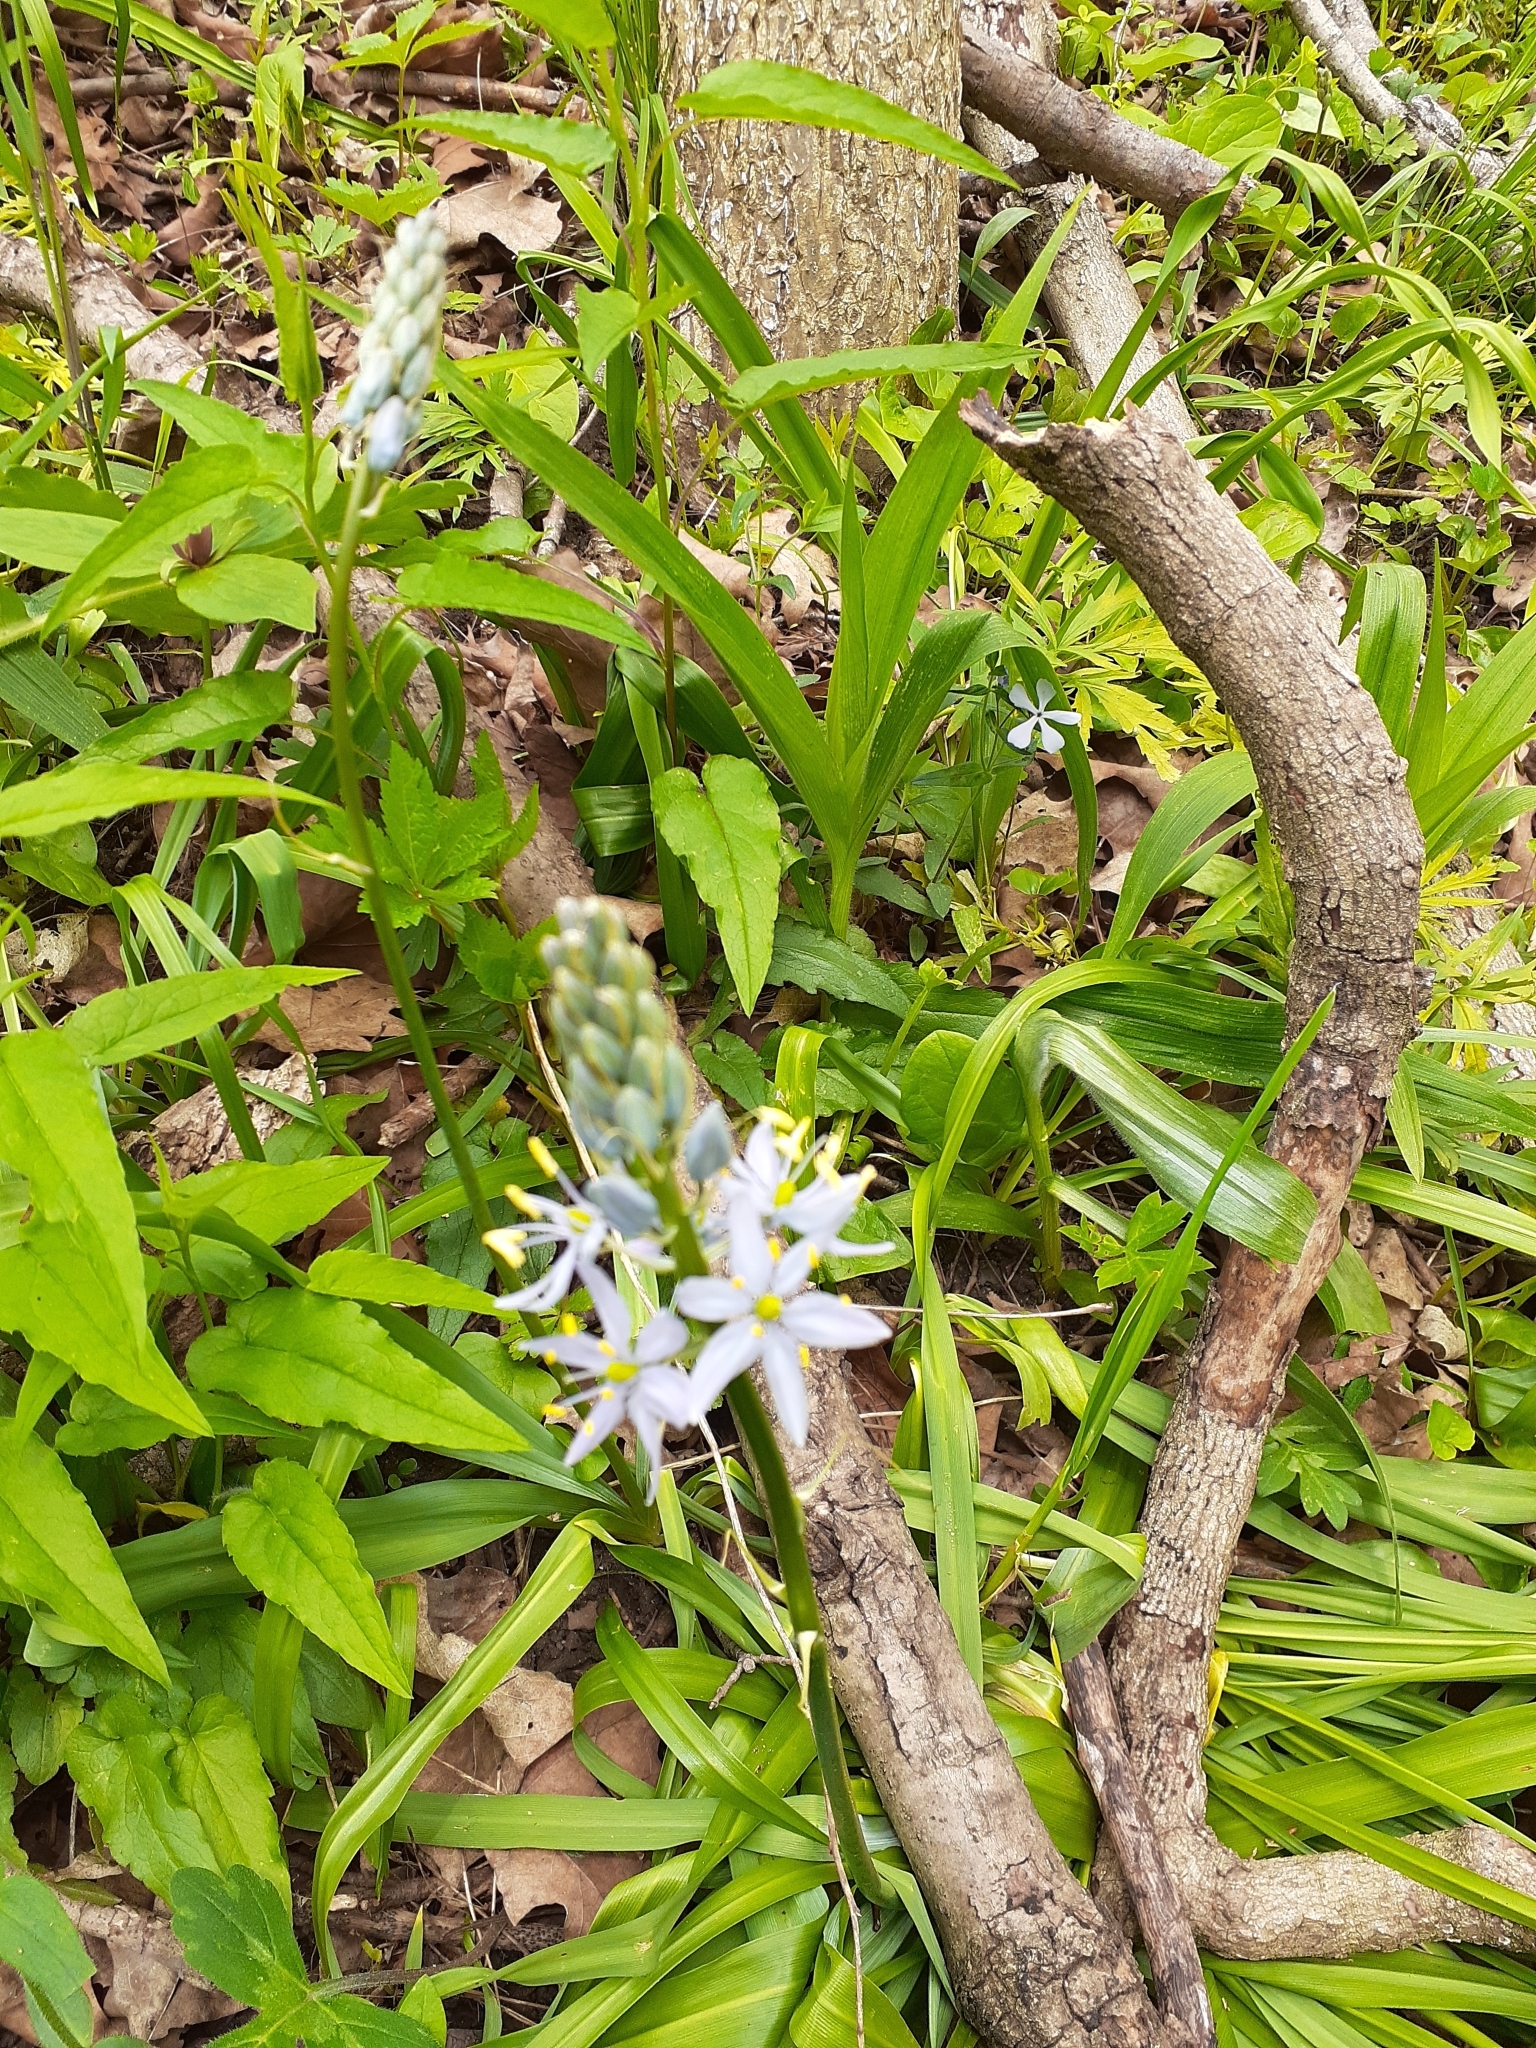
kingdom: Plantae
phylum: Tracheophyta
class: Liliopsida
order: Asparagales
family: Asparagaceae
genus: Camassia
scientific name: Camassia scilloides
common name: Wild hyacinth
